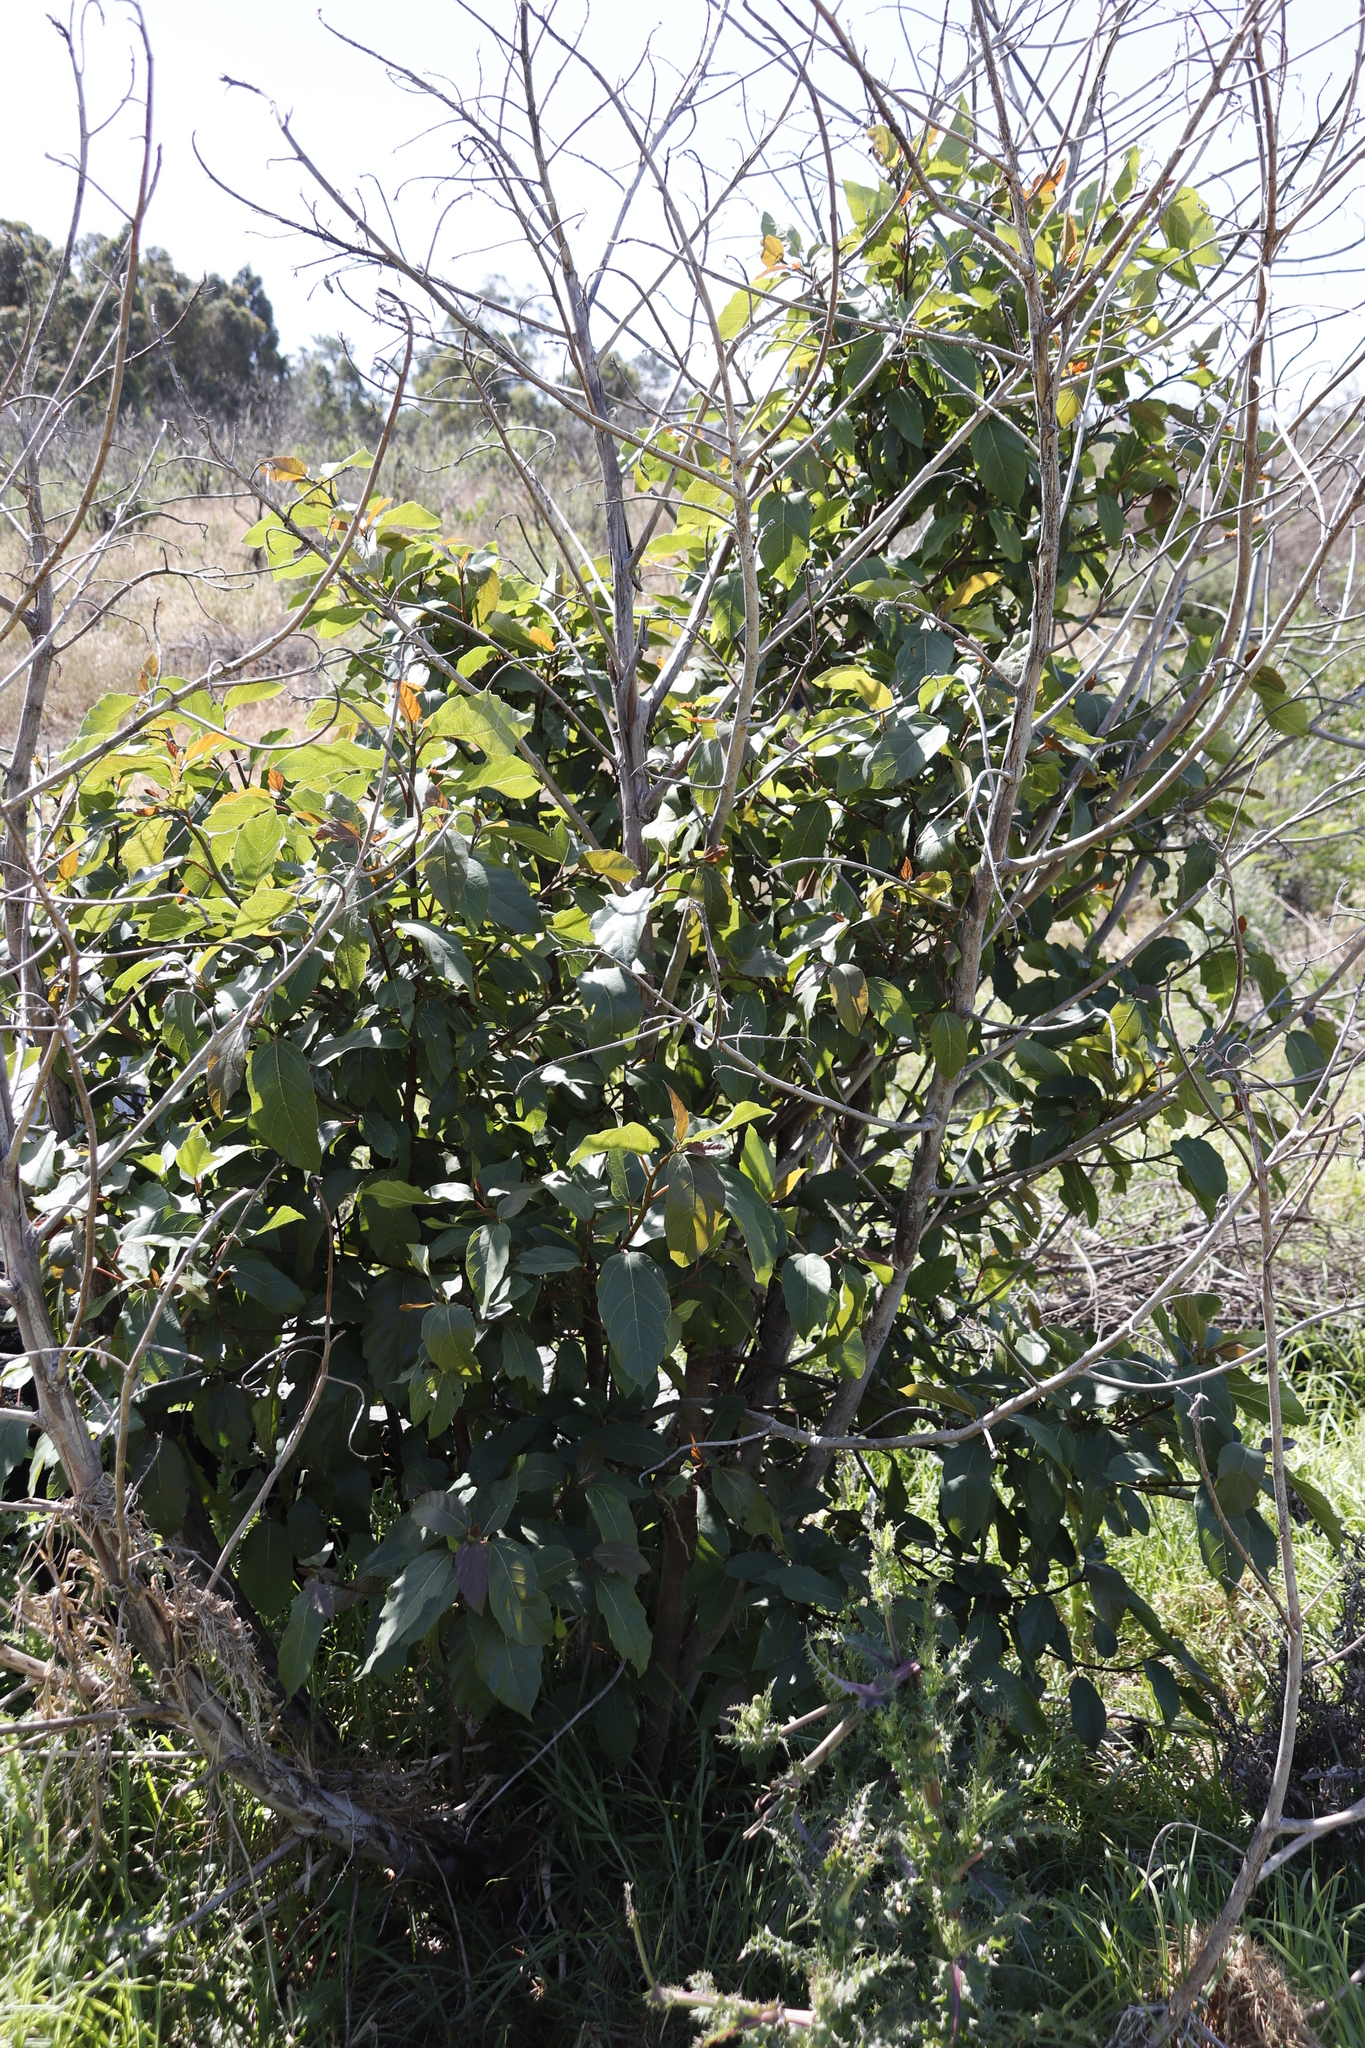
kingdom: Plantae
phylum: Tracheophyta
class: Magnoliopsida
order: Rosales
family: Moraceae
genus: Ficus
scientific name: Ficus sur
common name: Cape fig
